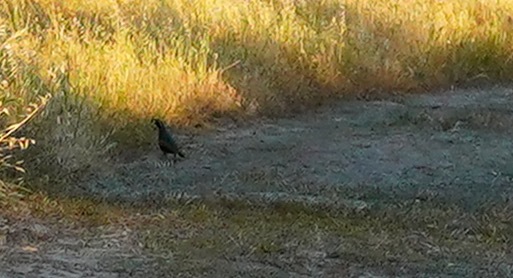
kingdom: Animalia
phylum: Chordata
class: Aves
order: Galliformes
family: Odontophoridae
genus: Callipepla
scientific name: Callipepla californica
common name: California quail
